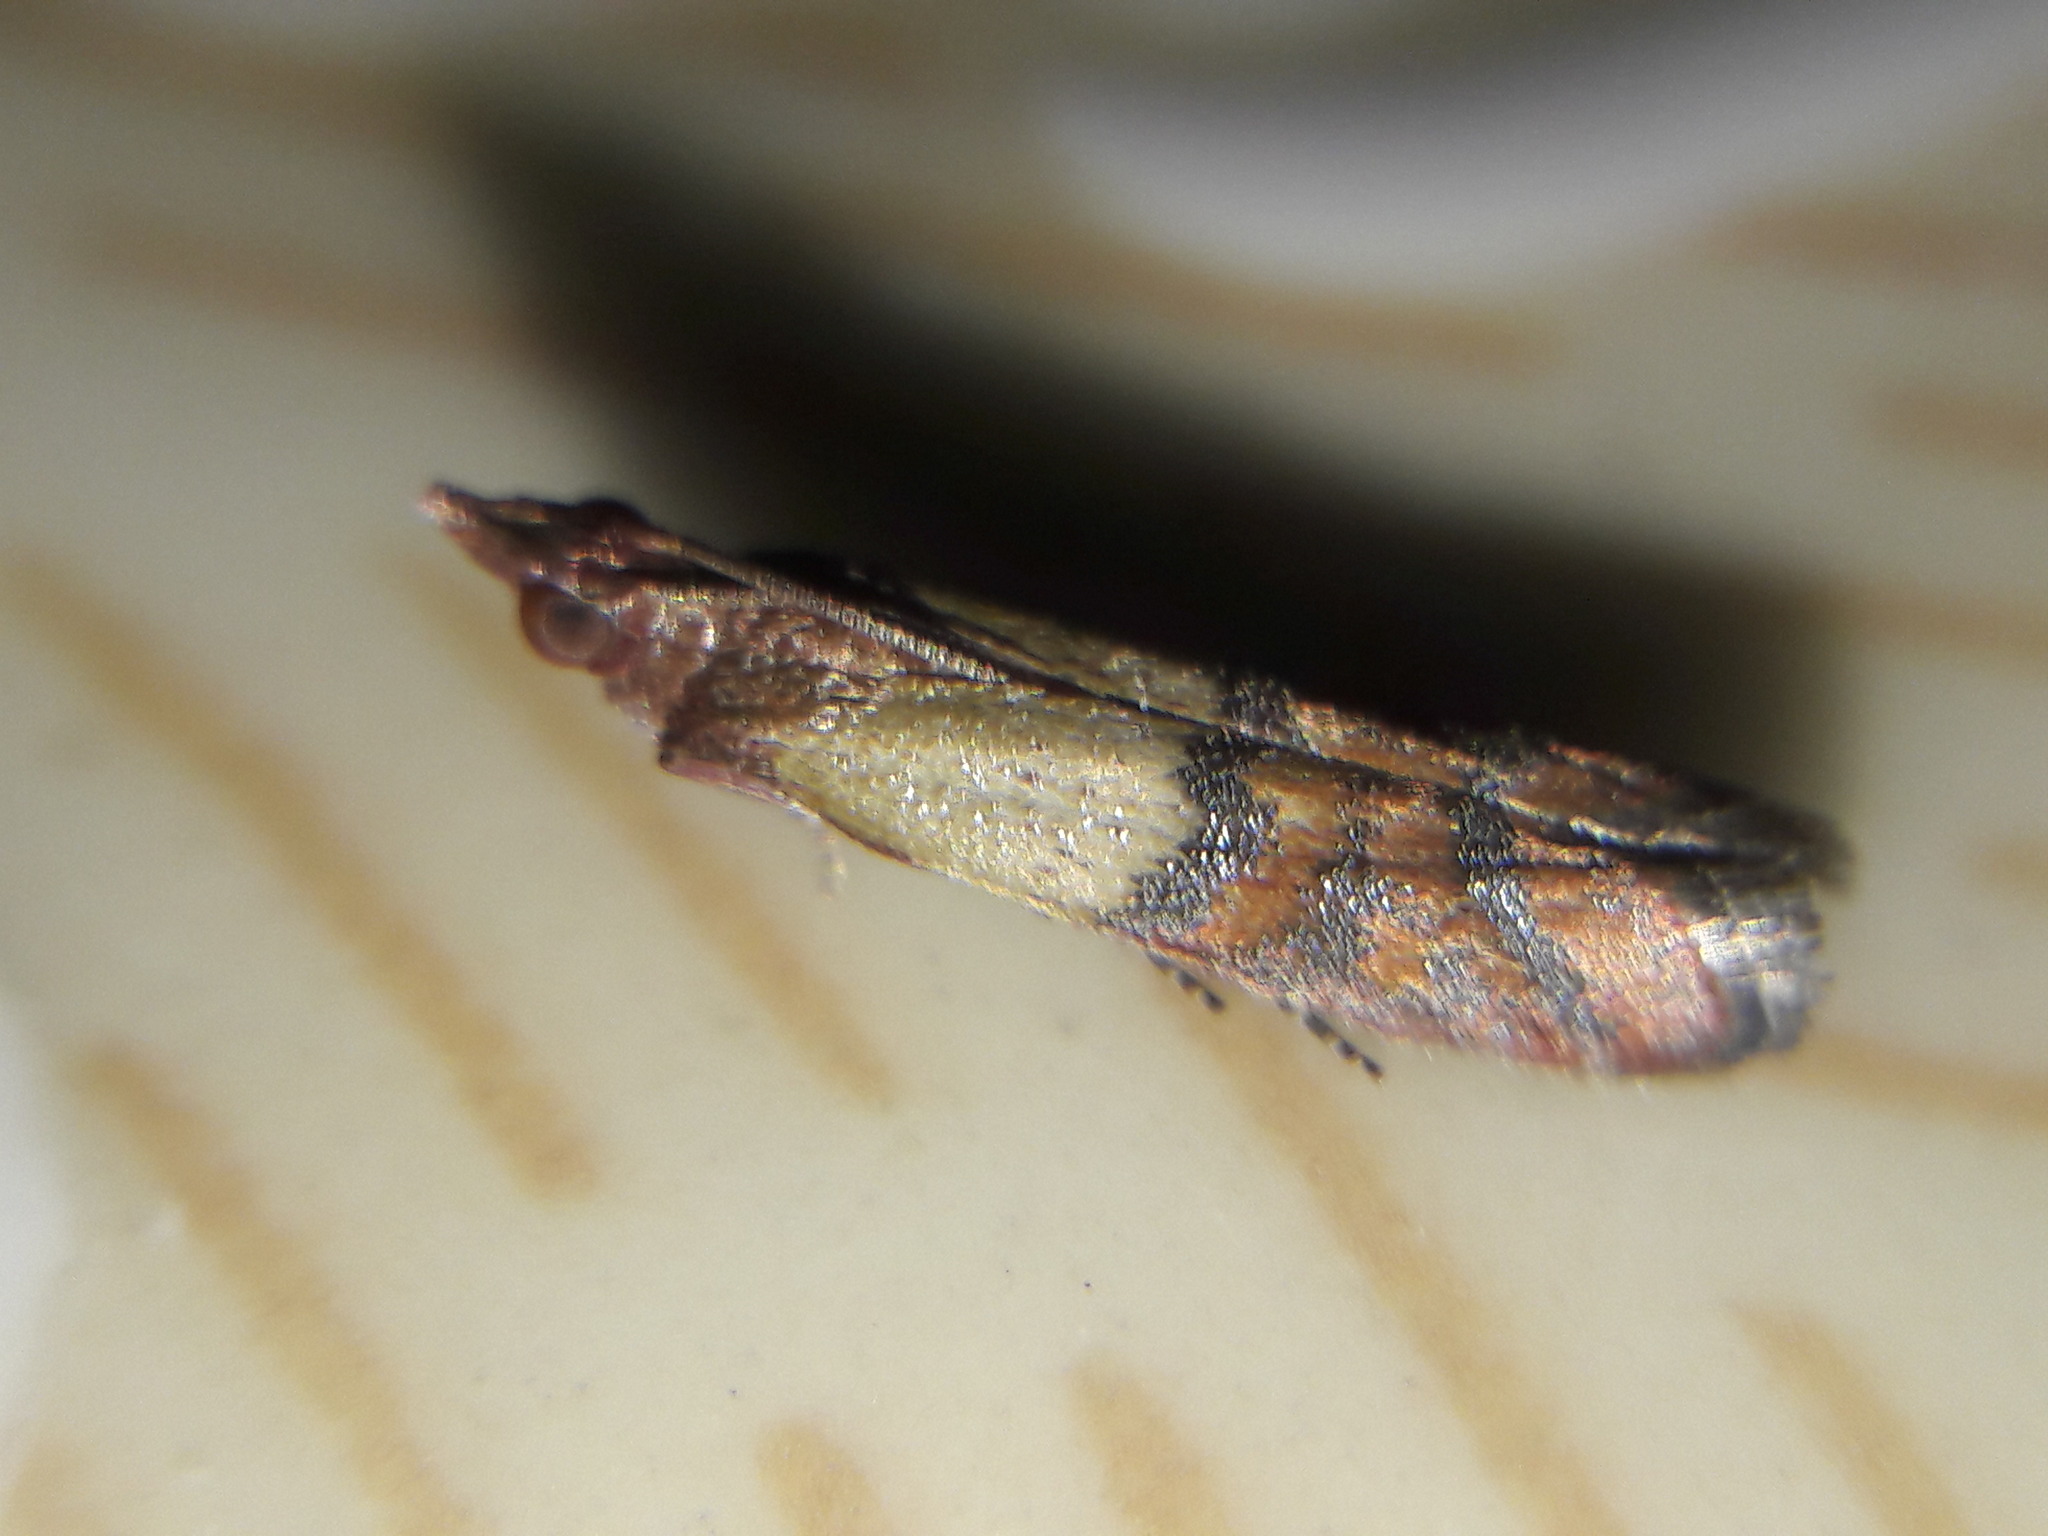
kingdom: Animalia
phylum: Arthropoda
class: Insecta
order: Lepidoptera
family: Pyralidae
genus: Plodia
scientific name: Plodia interpunctella
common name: Indian meal moth
